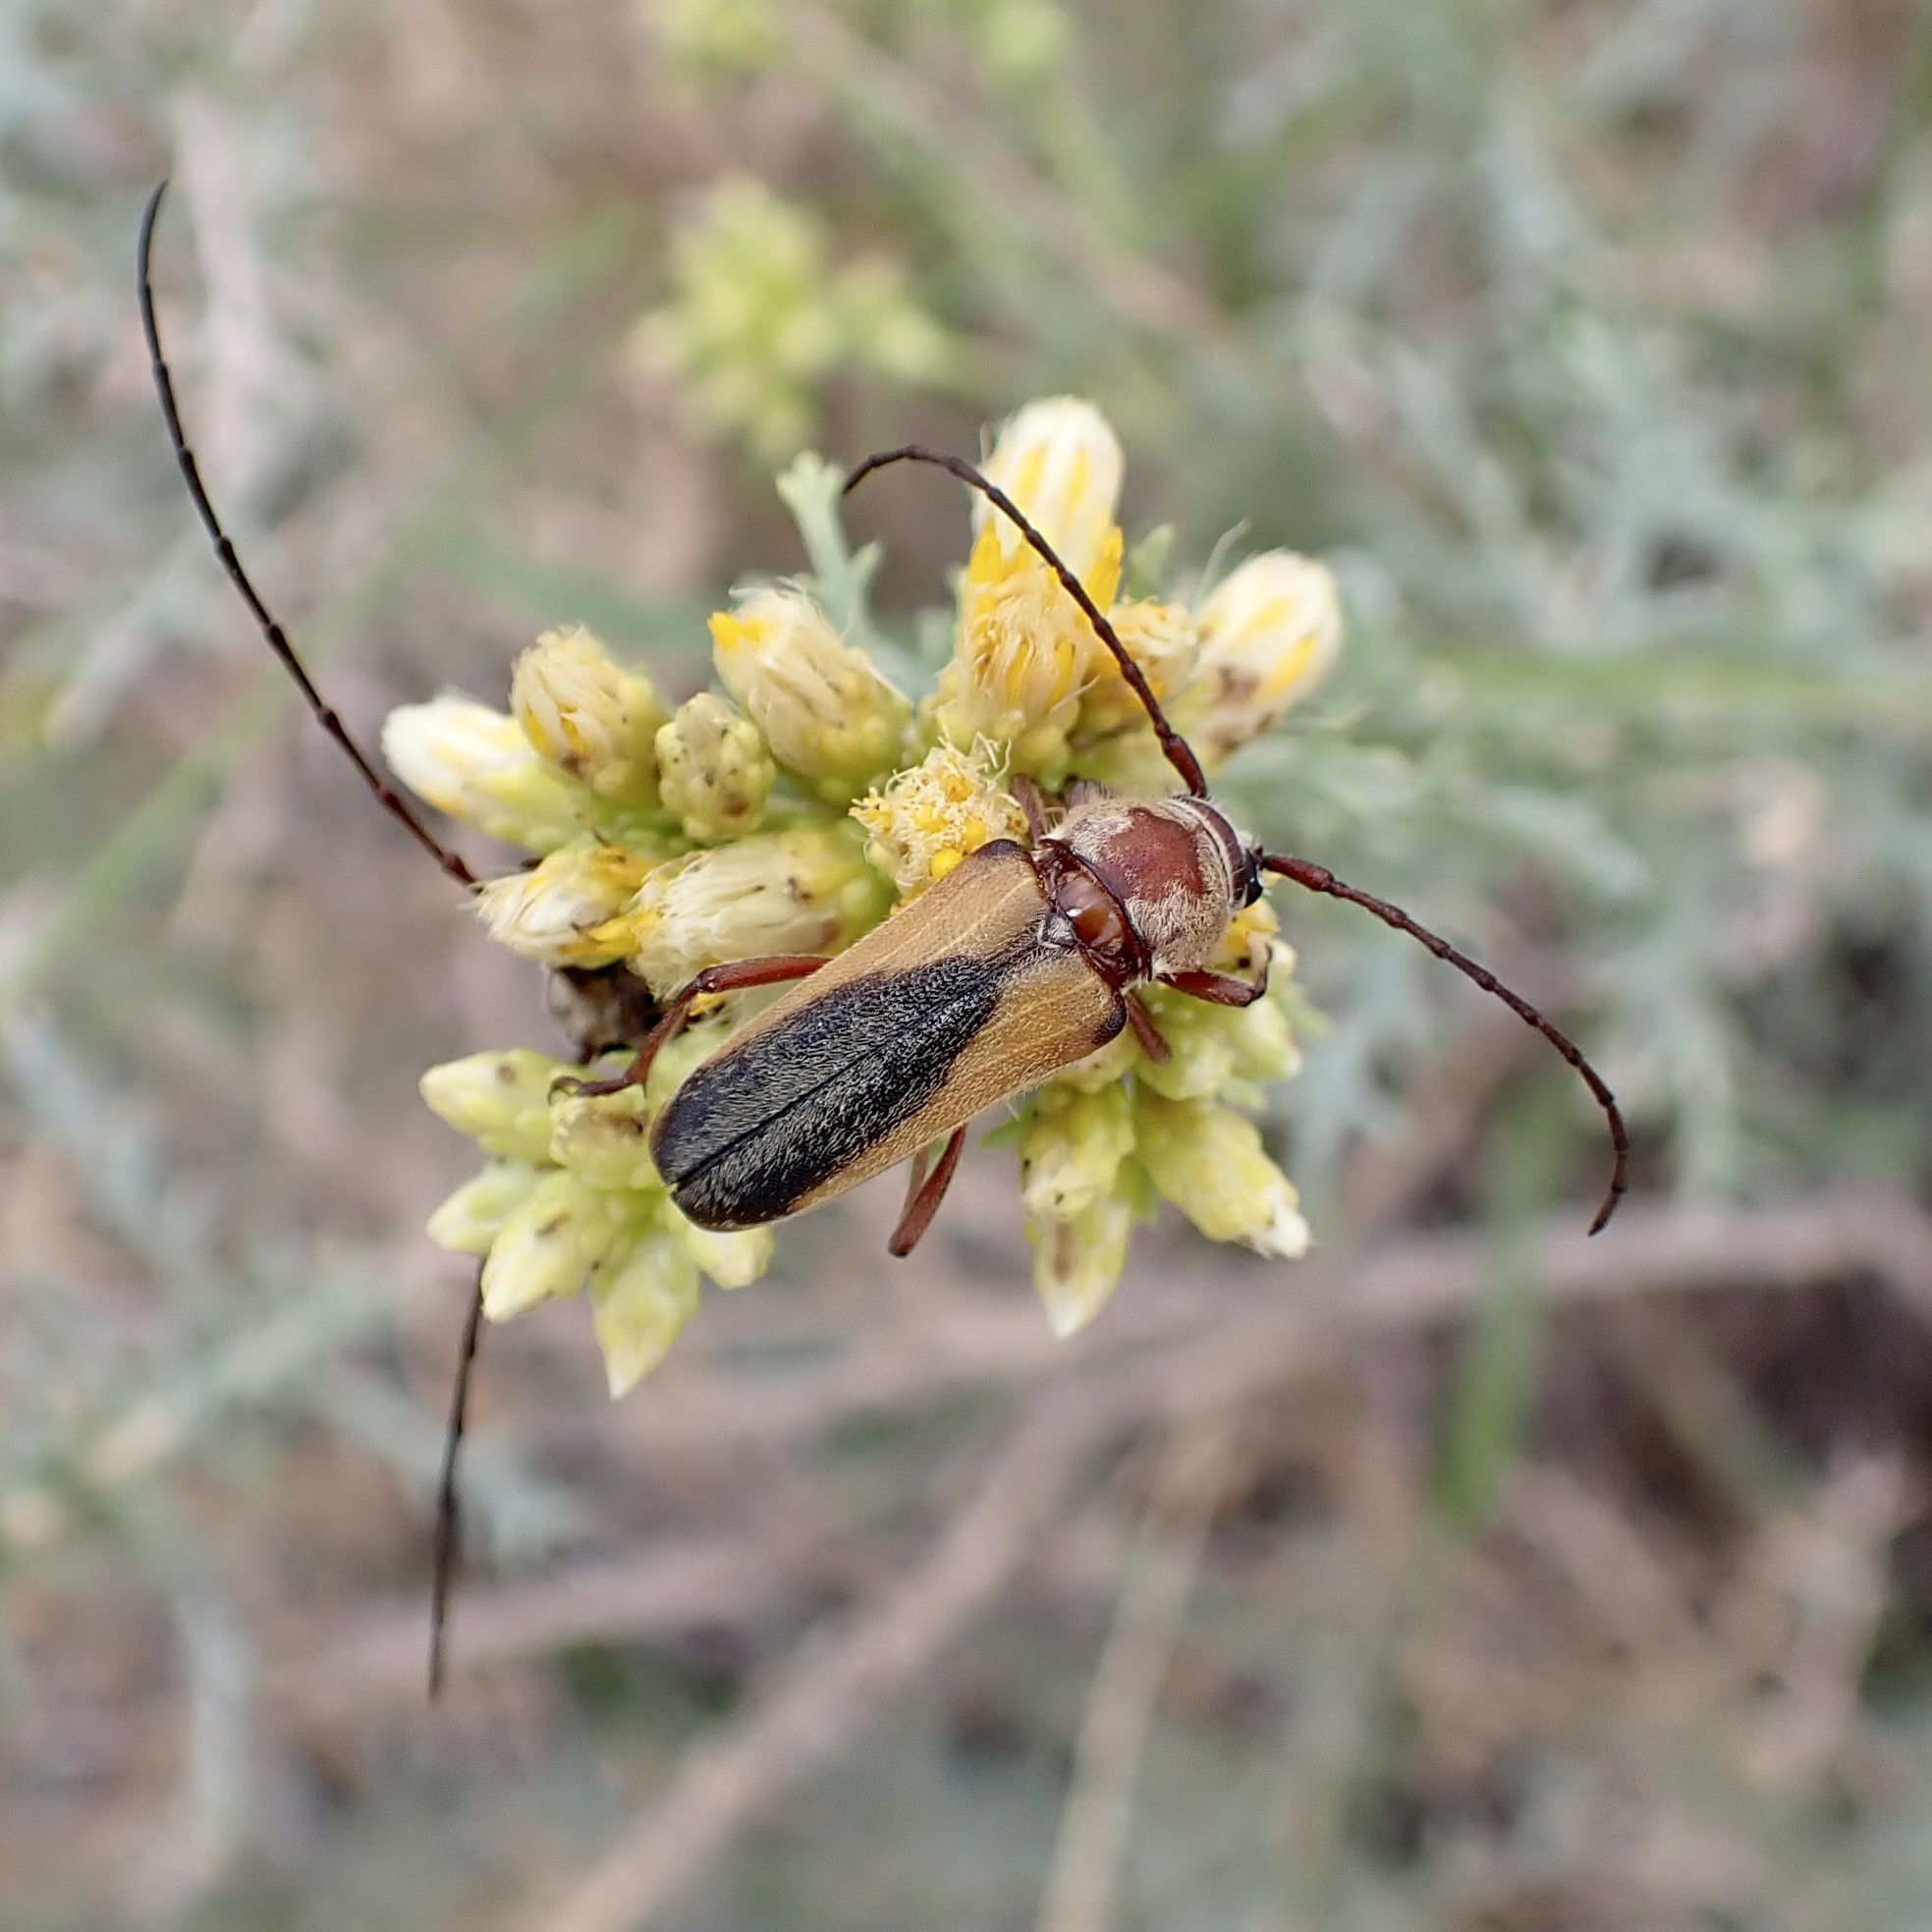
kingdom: Animalia
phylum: Arthropoda
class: Insecta
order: Coleoptera
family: Cerambycidae
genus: Crossidius
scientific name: Crossidius suturalis
